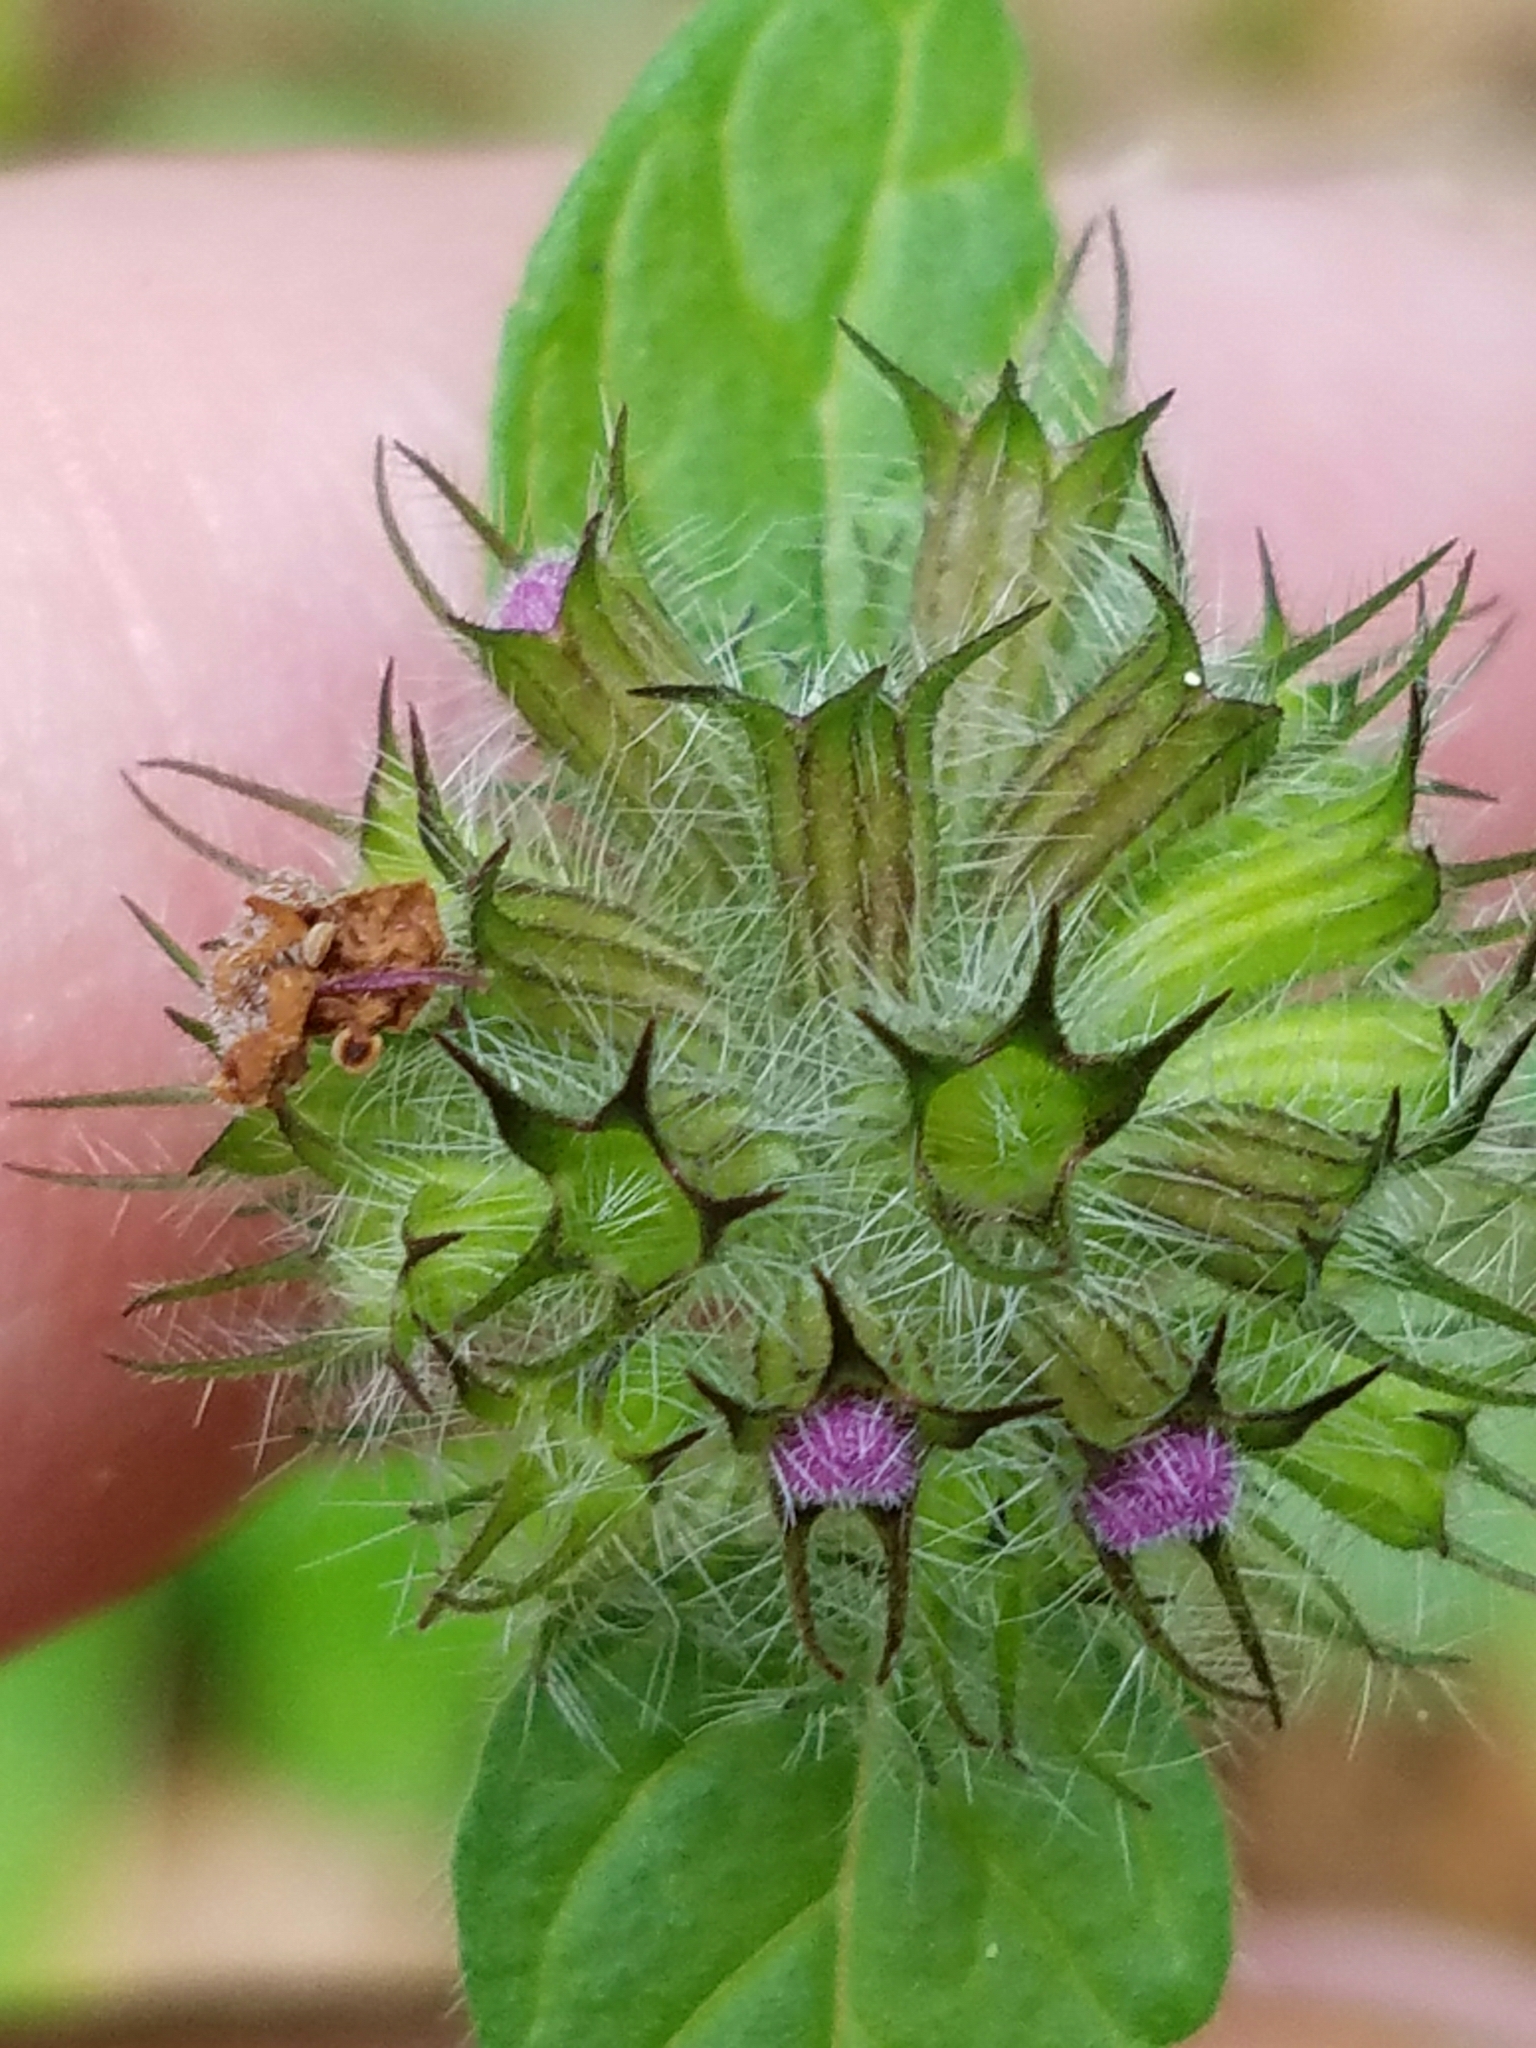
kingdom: Plantae
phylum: Tracheophyta
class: Magnoliopsida
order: Lamiales
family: Lamiaceae
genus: Clinopodium
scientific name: Clinopodium vulgare
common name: Wild basil
